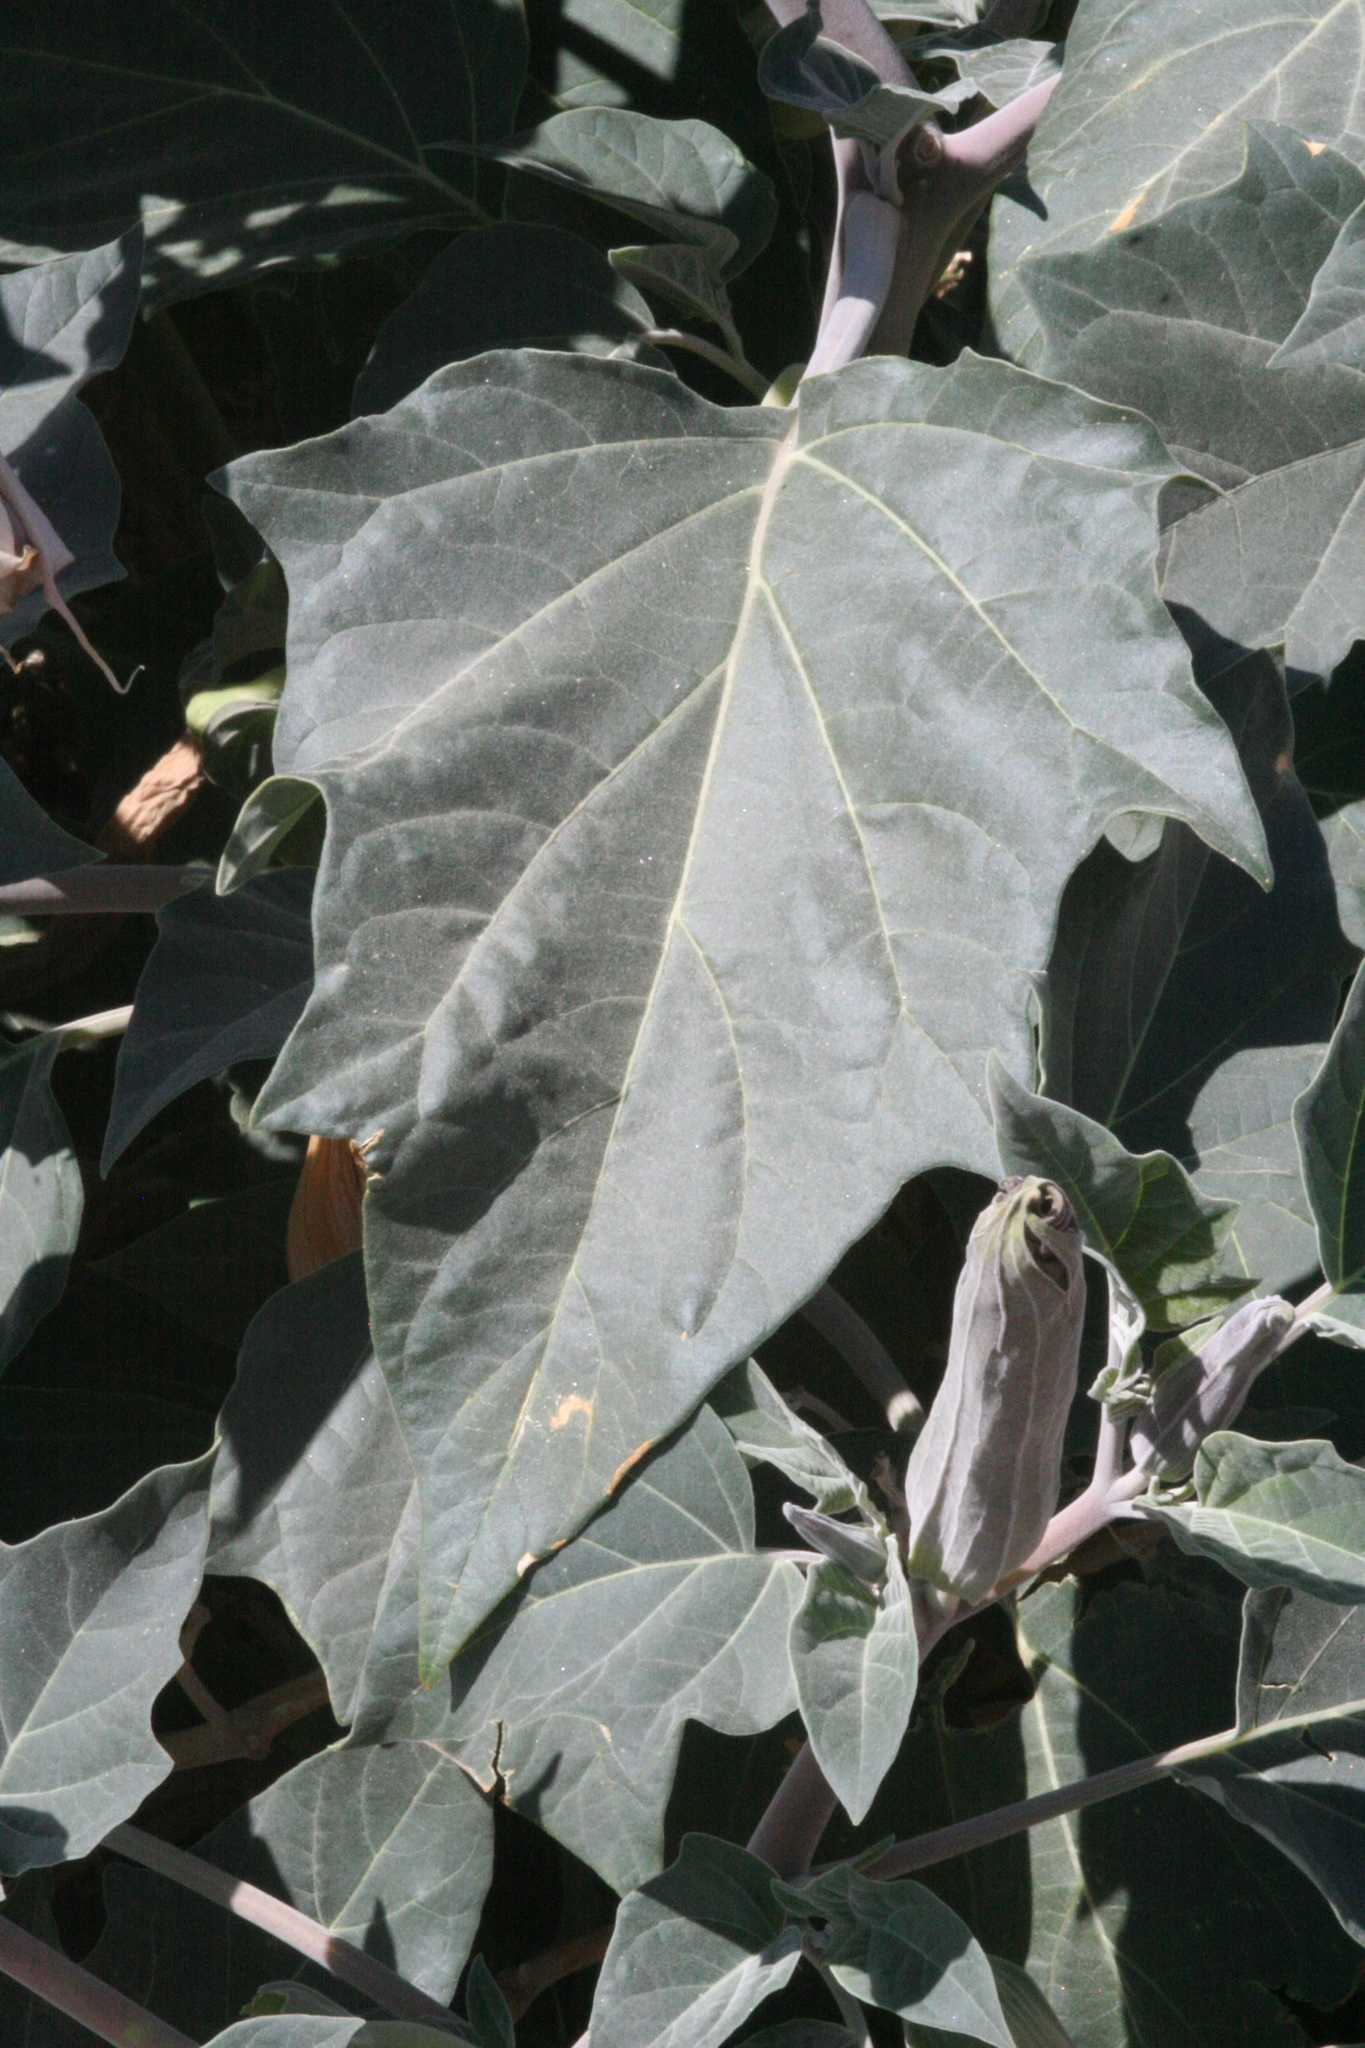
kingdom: Plantae
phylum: Tracheophyta
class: Magnoliopsida
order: Solanales
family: Solanaceae
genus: Datura
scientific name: Datura wrightii
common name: Sacred thorn-apple
